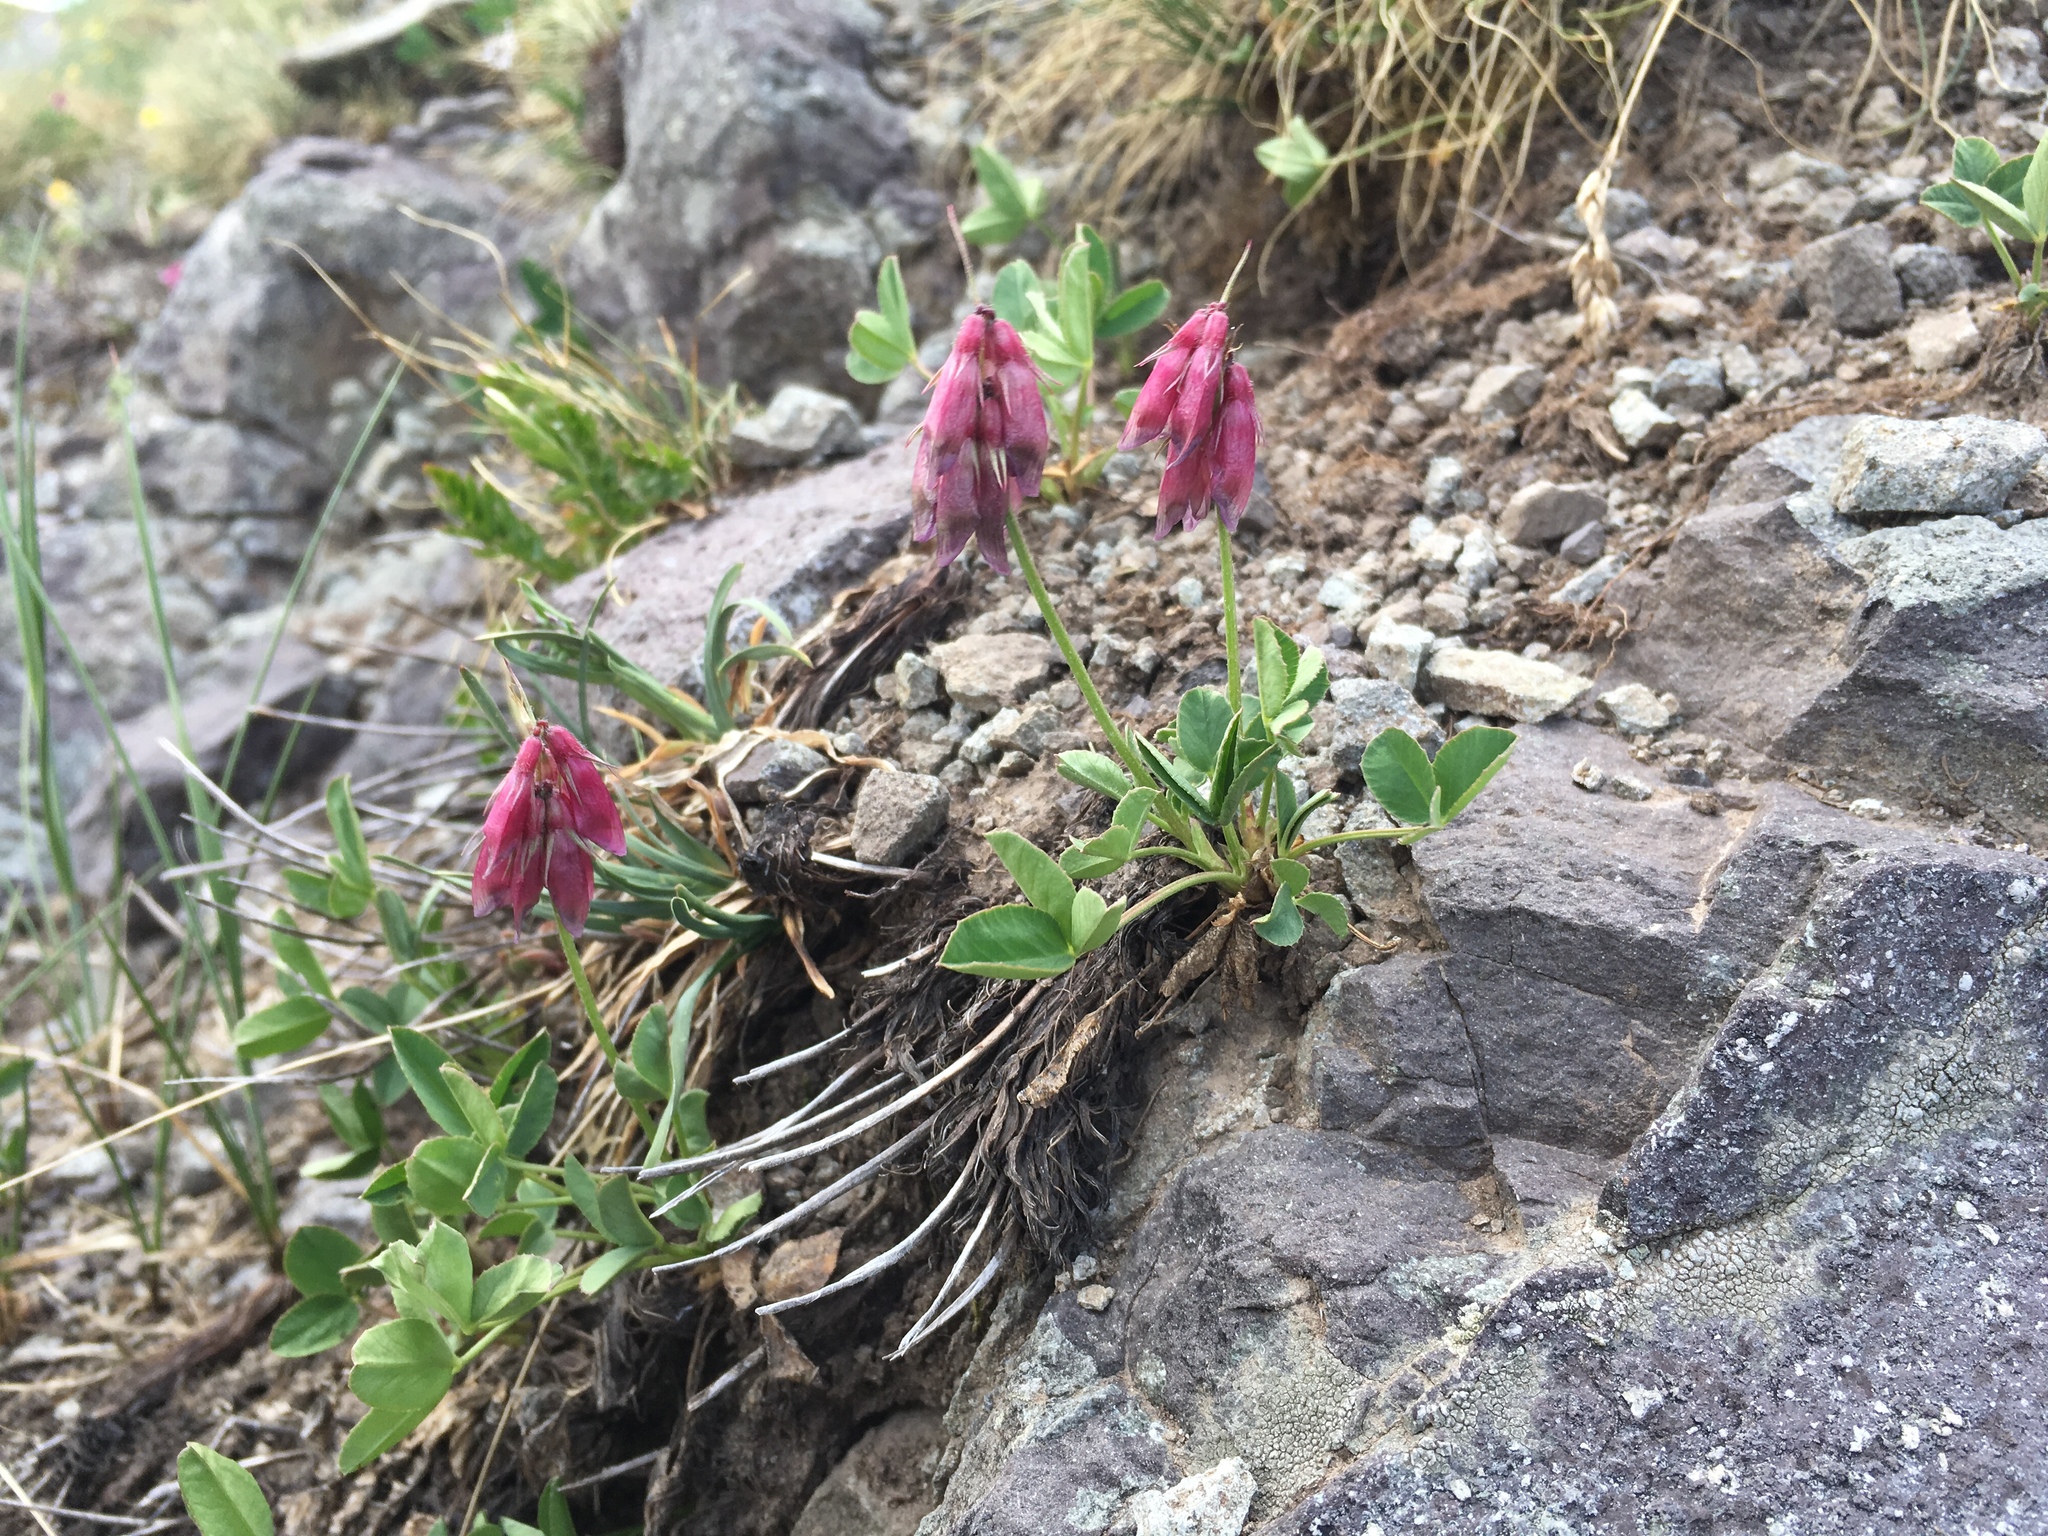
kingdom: Plantae
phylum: Tracheophyta
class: Magnoliopsida
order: Fabales
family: Fabaceae
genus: Trifolium
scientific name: Trifolium brandegeei
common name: Brandegee's clover
